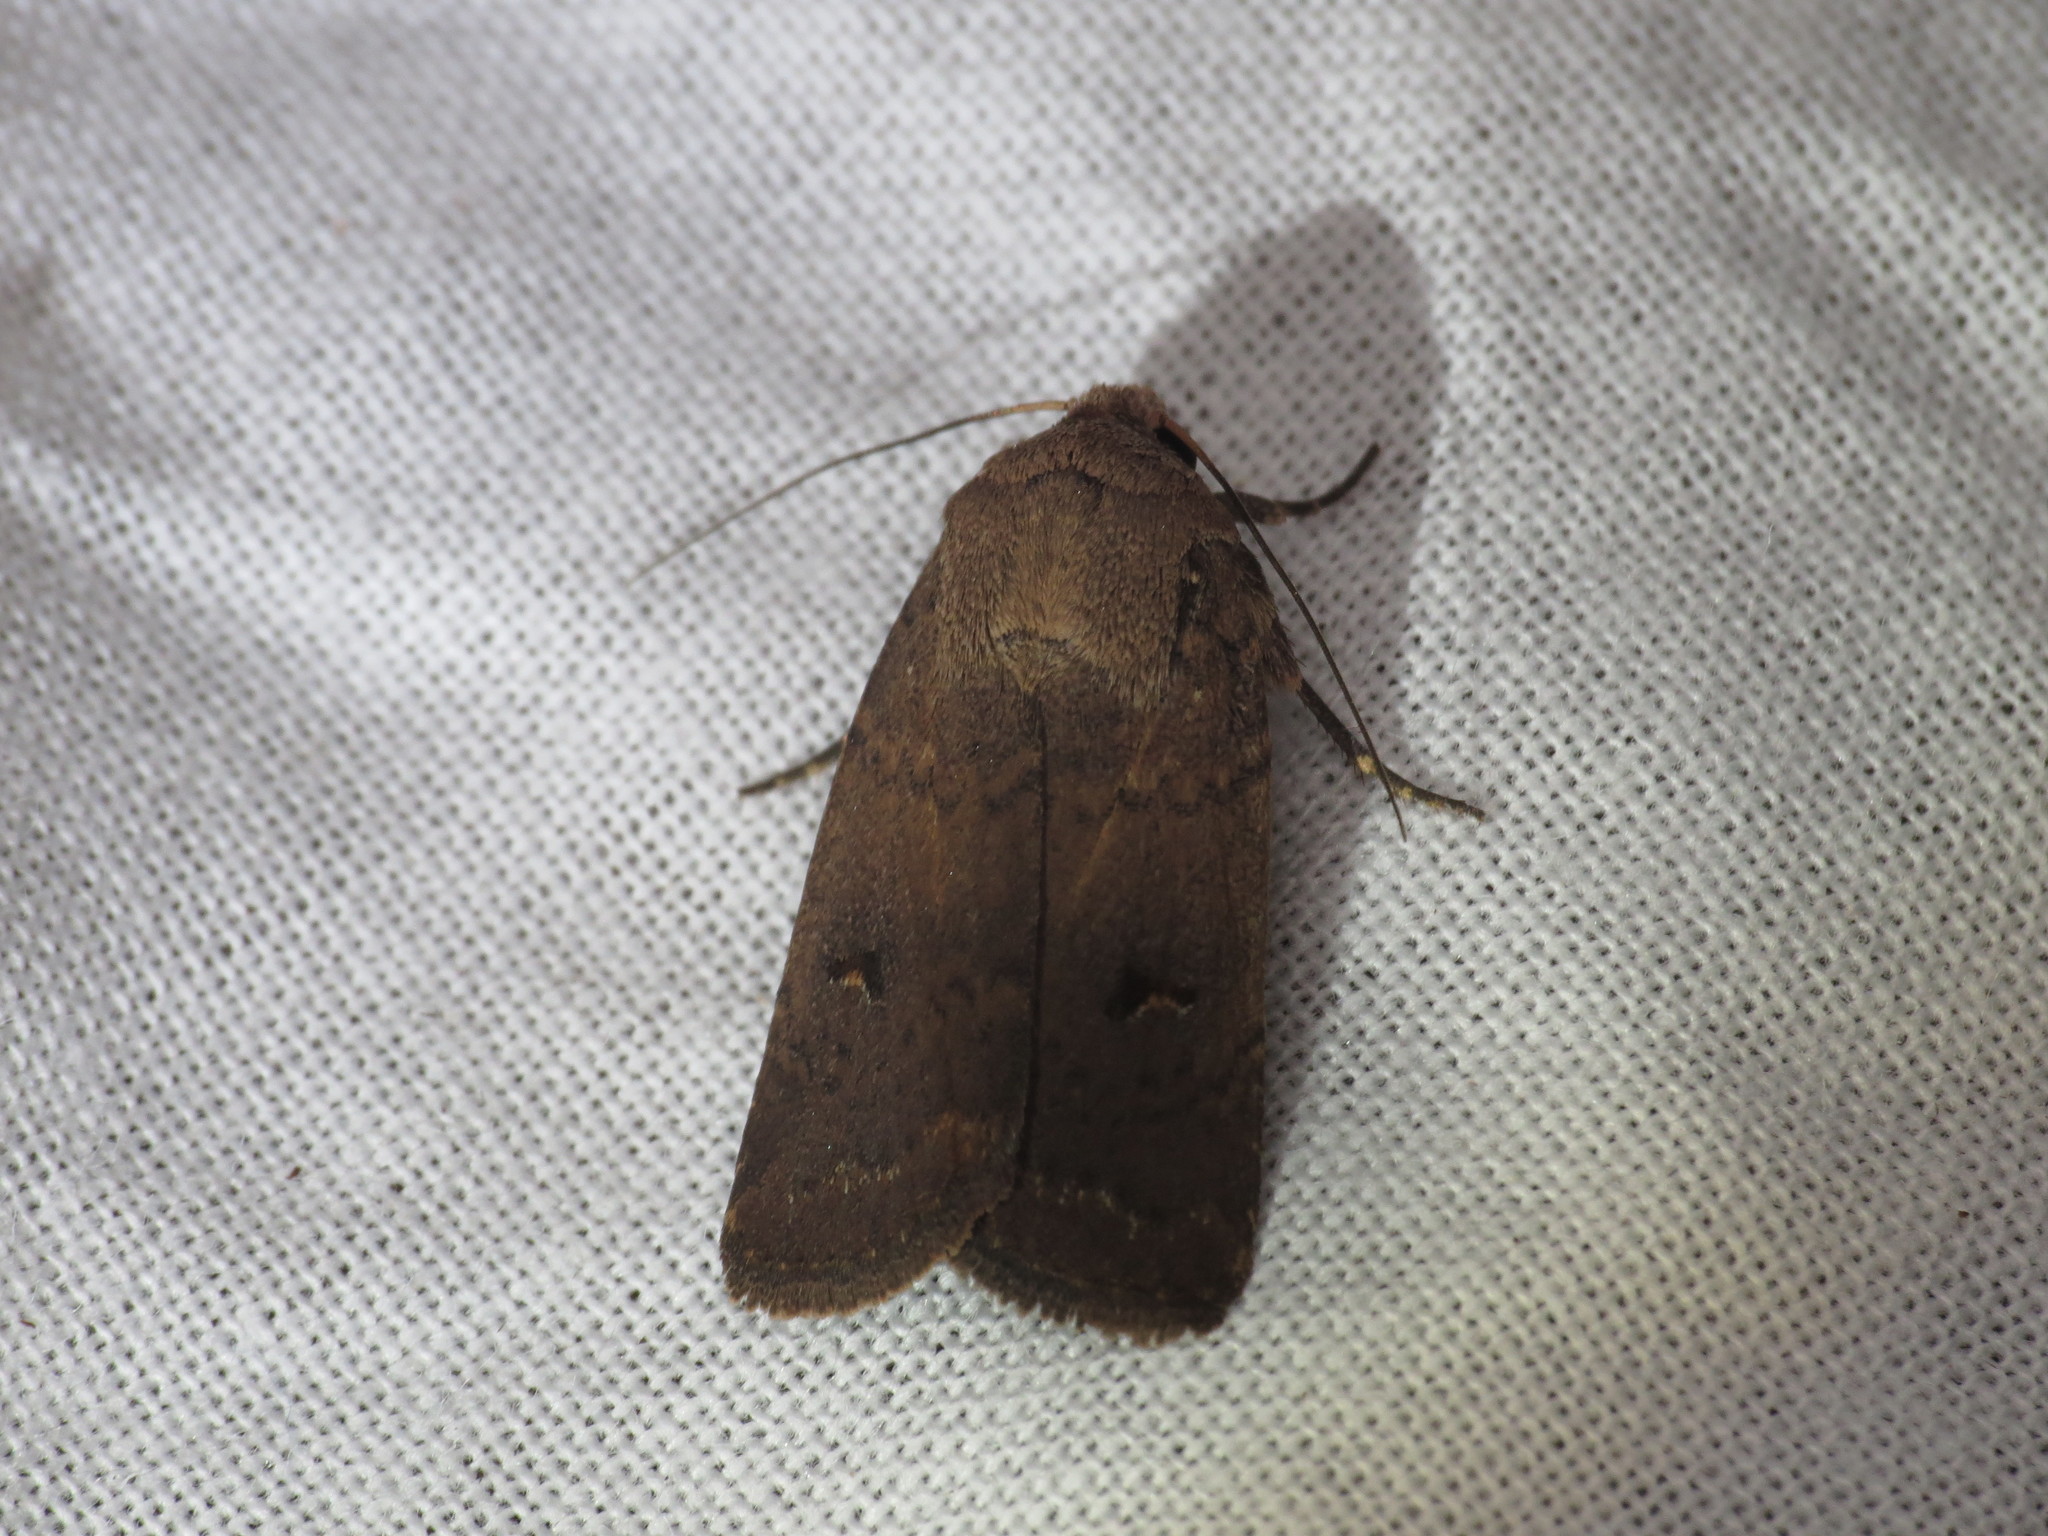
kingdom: Animalia
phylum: Arthropoda
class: Insecta
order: Lepidoptera
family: Noctuidae
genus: Proteuxoa
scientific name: Proteuxoa hypochalchis
